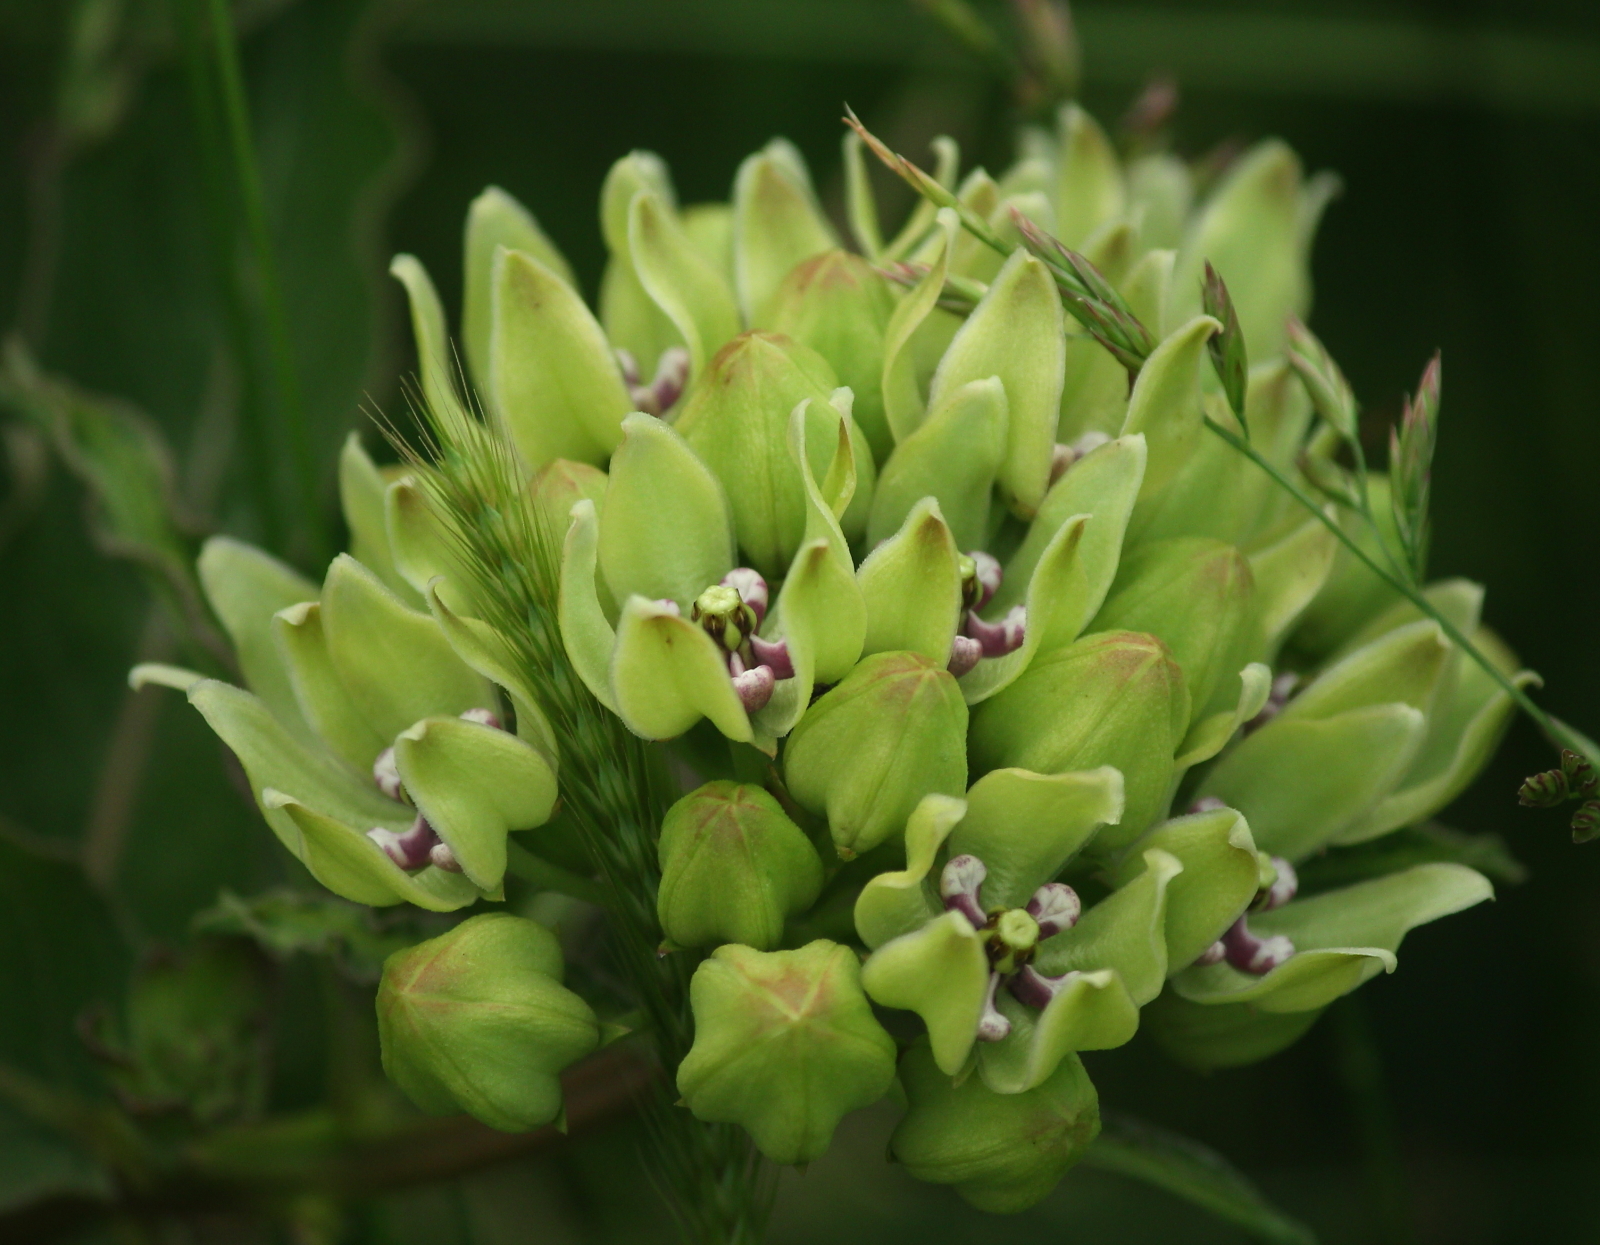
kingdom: Plantae
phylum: Tracheophyta
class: Magnoliopsida
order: Gentianales
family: Apocynaceae
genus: Asclepias
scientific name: Asclepias viridis
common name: Antelope-horns
